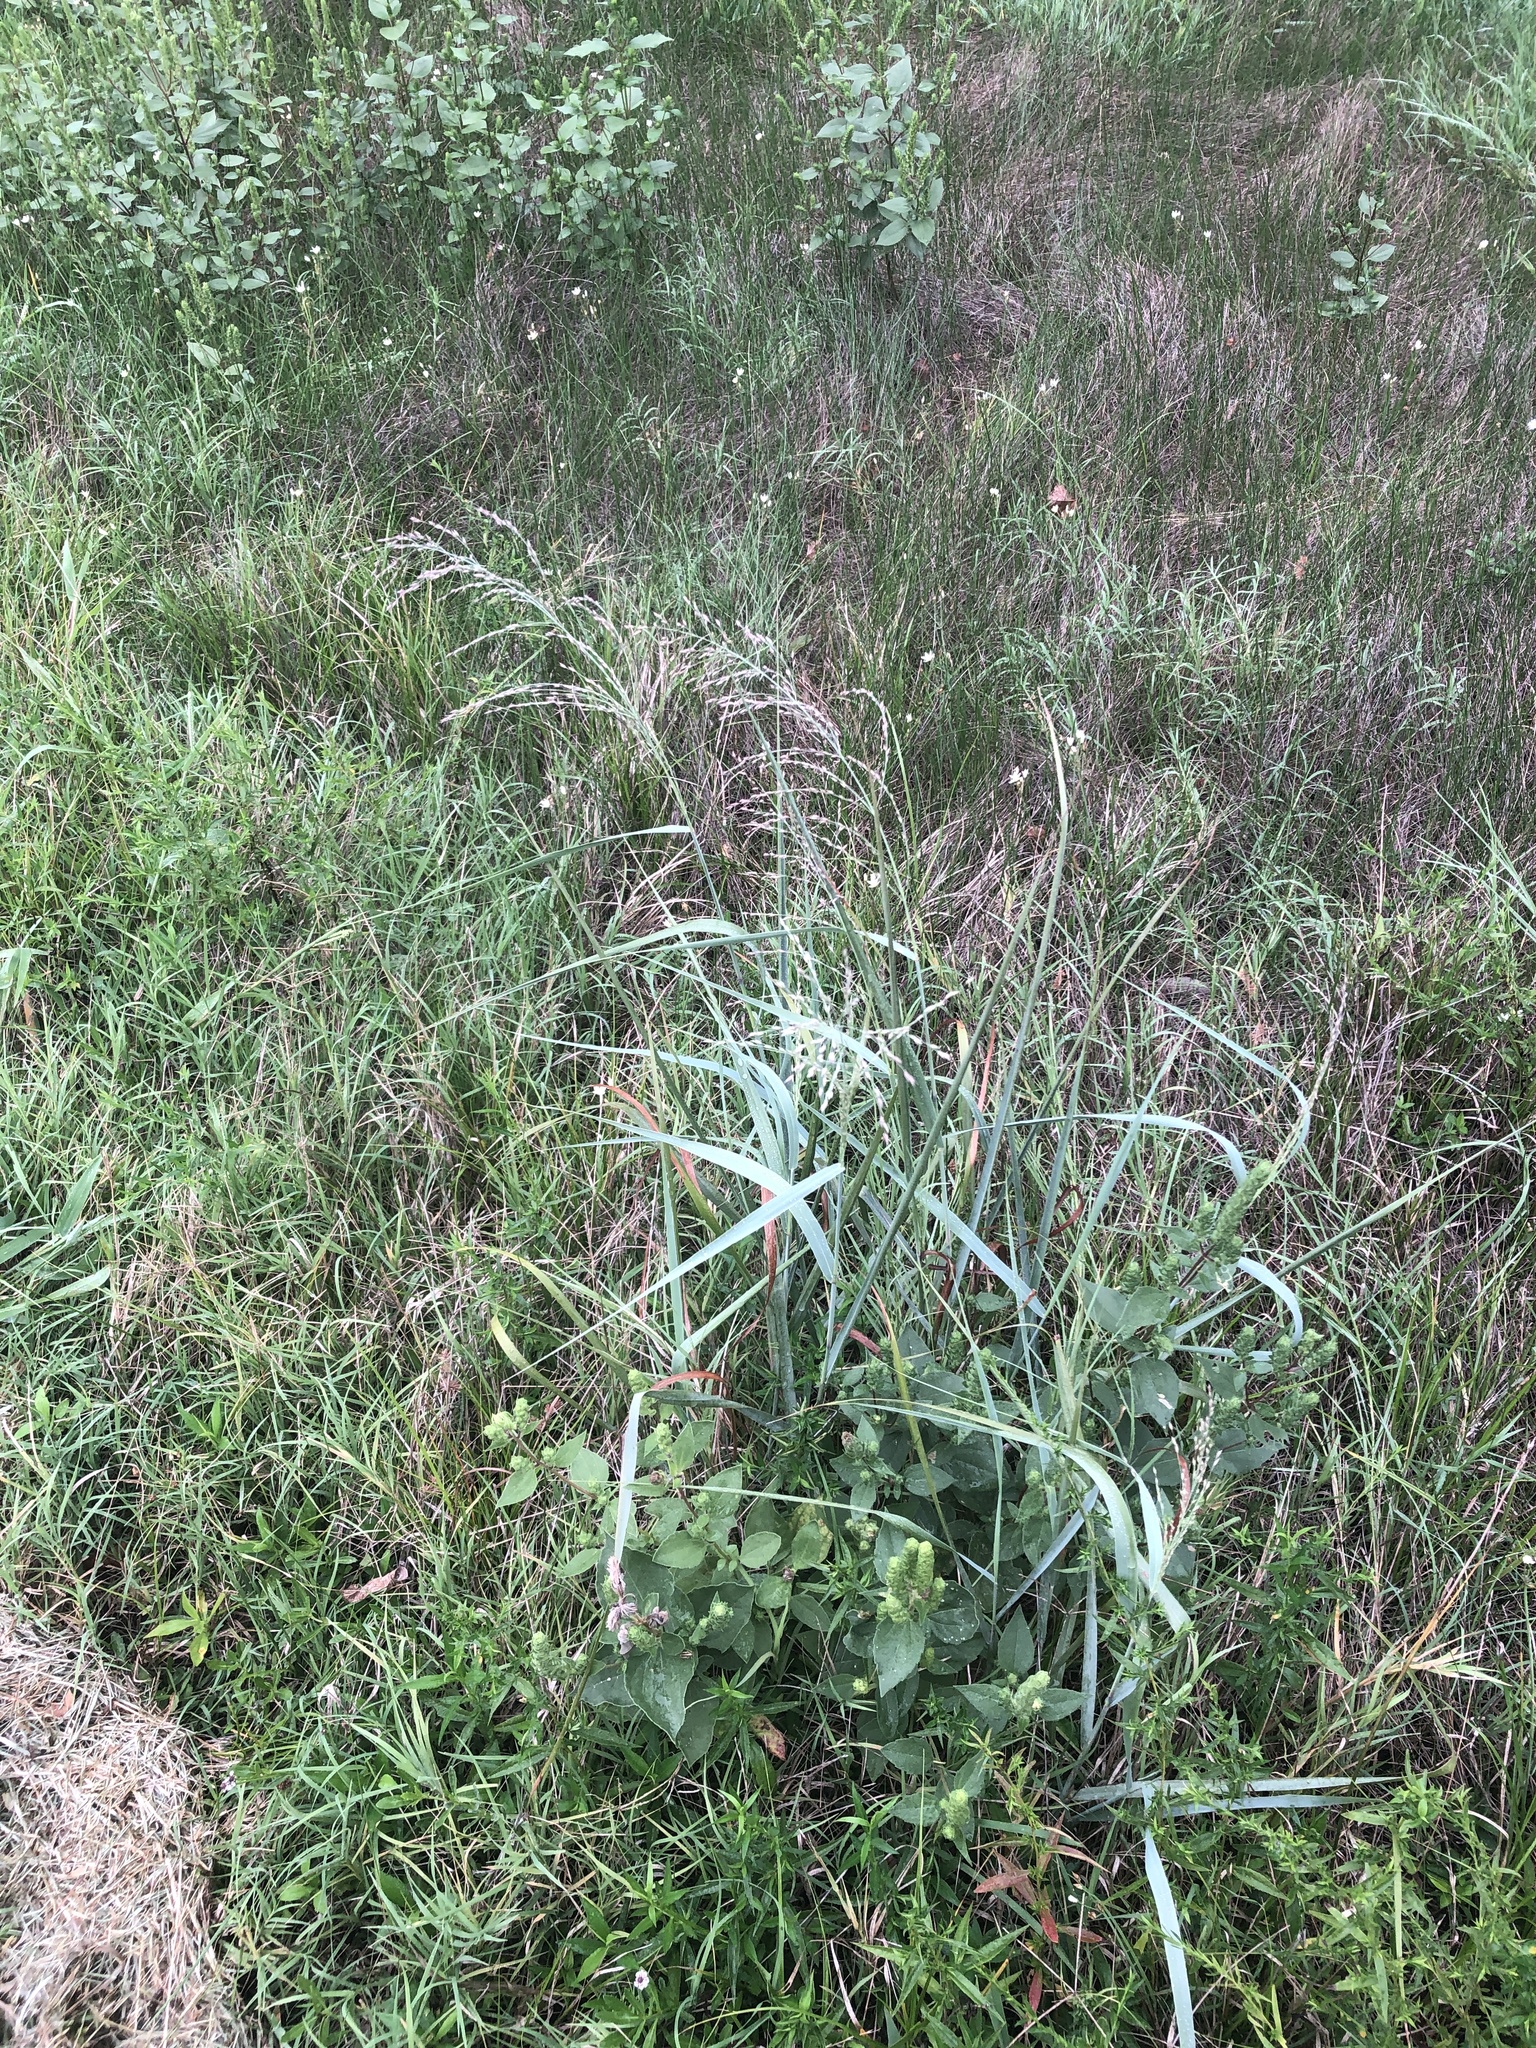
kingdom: Plantae
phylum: Tracheophyta
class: Liliopsida
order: Poales
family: Poaceae
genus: Panicum
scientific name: Panicum virgatum
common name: Switchgrass
